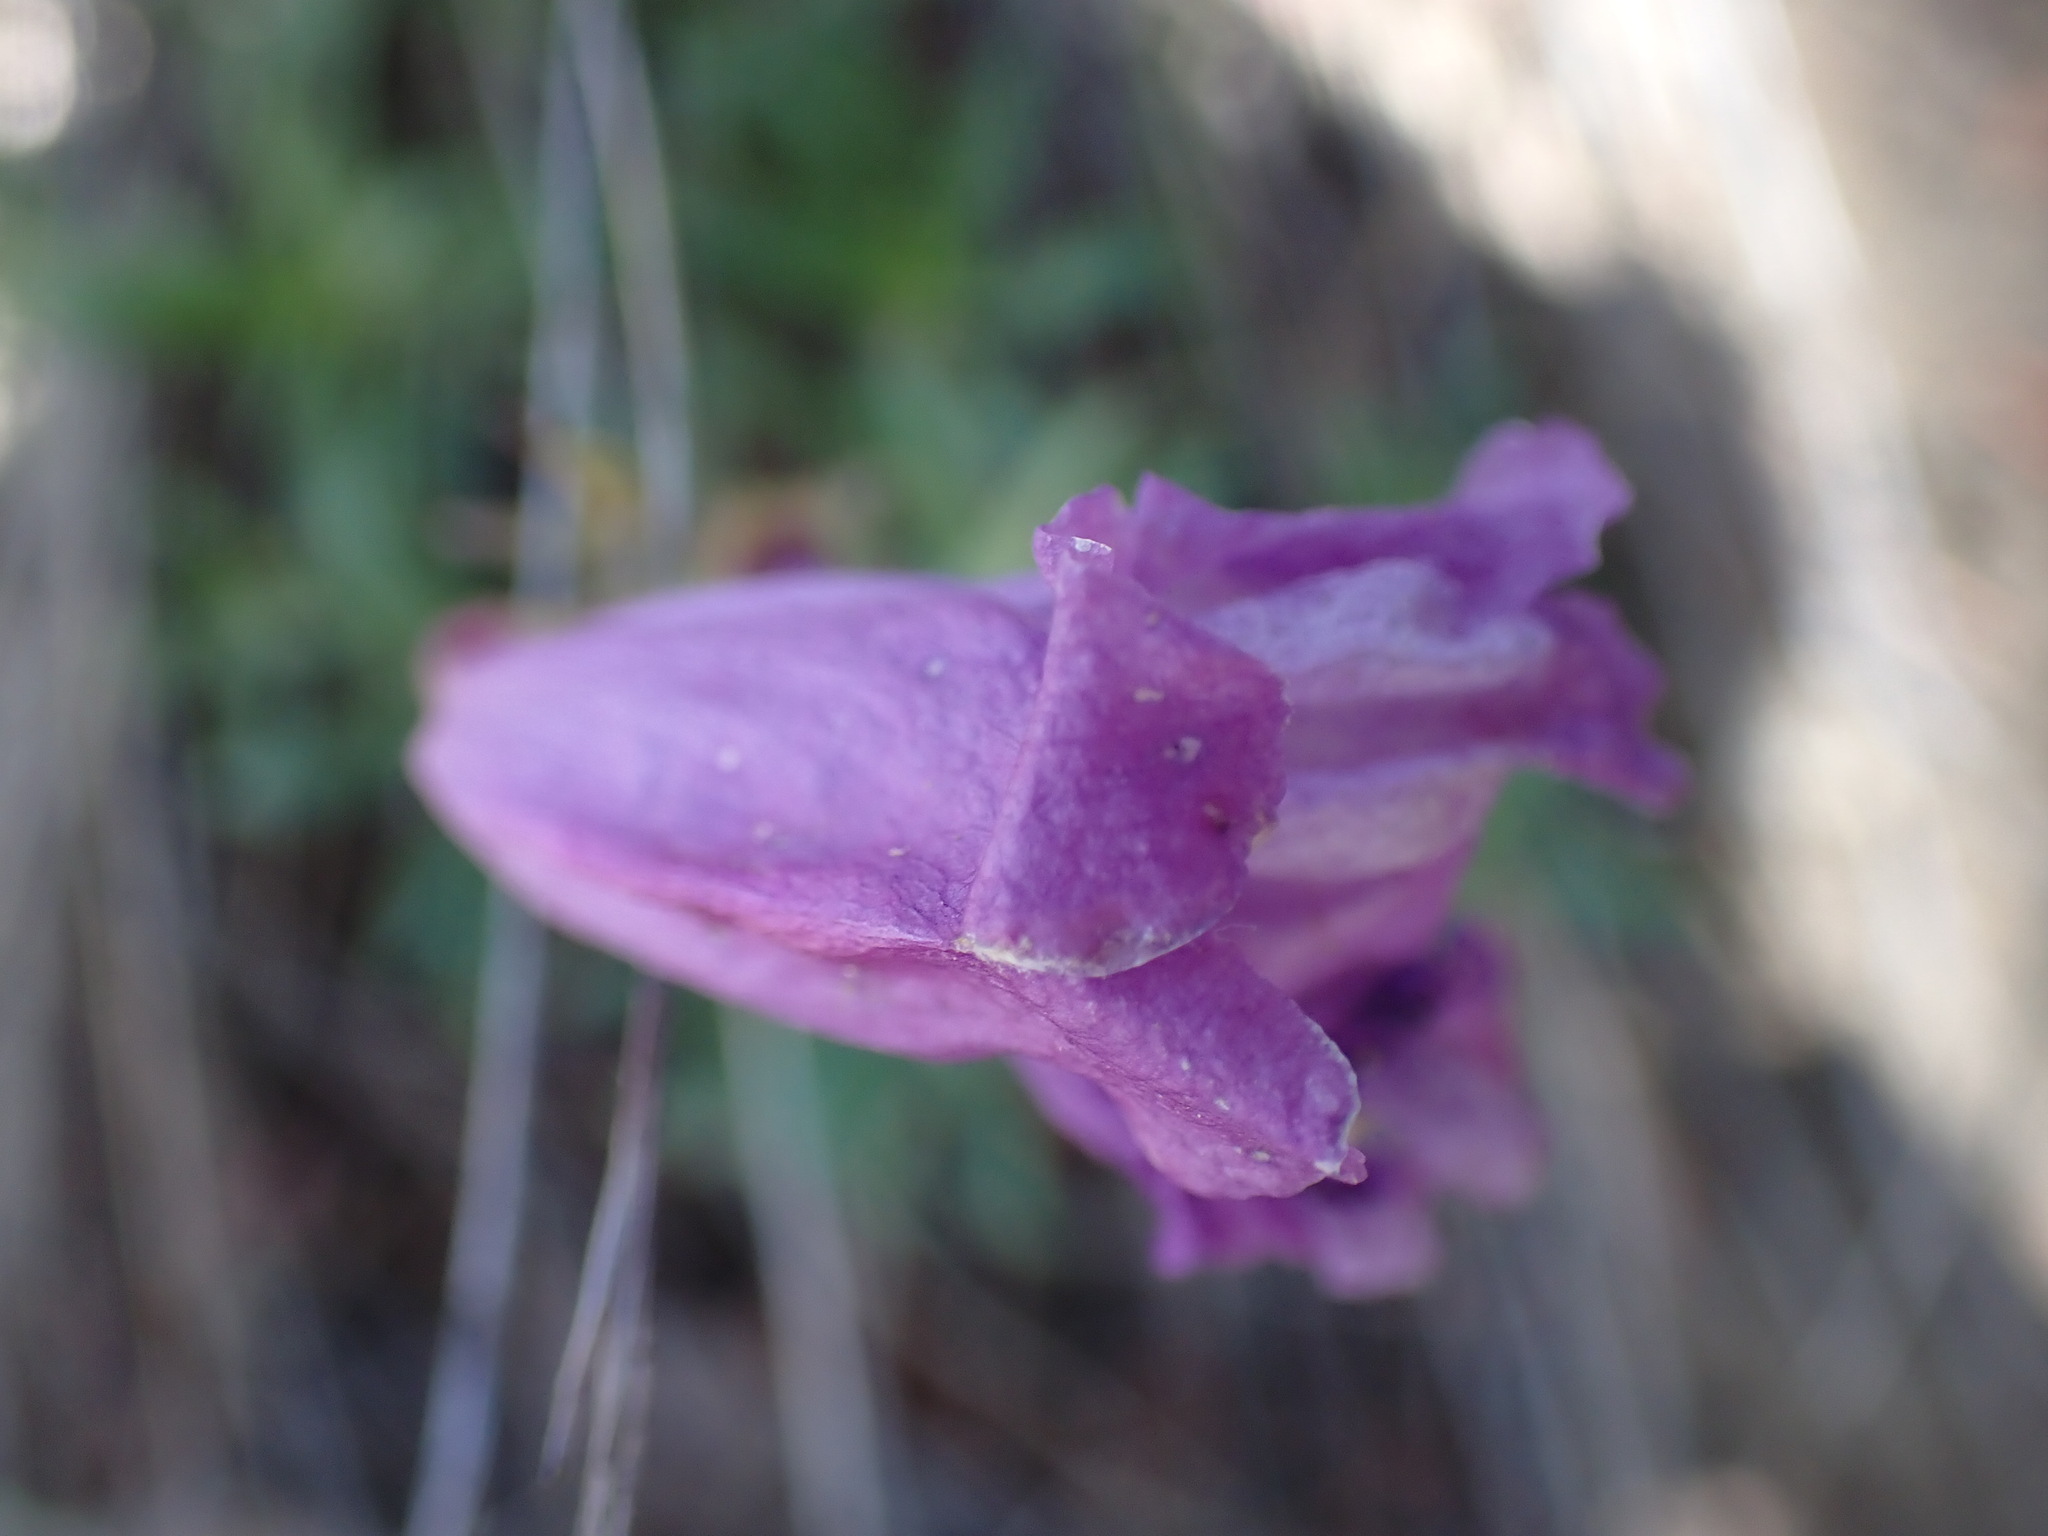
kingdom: Plantae
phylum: Tracheophyta
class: Magnoliopsida
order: Lamiales
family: Plantaginaceae
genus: Penstemon
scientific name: Penstemon fruticosus
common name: Bush penstemon
